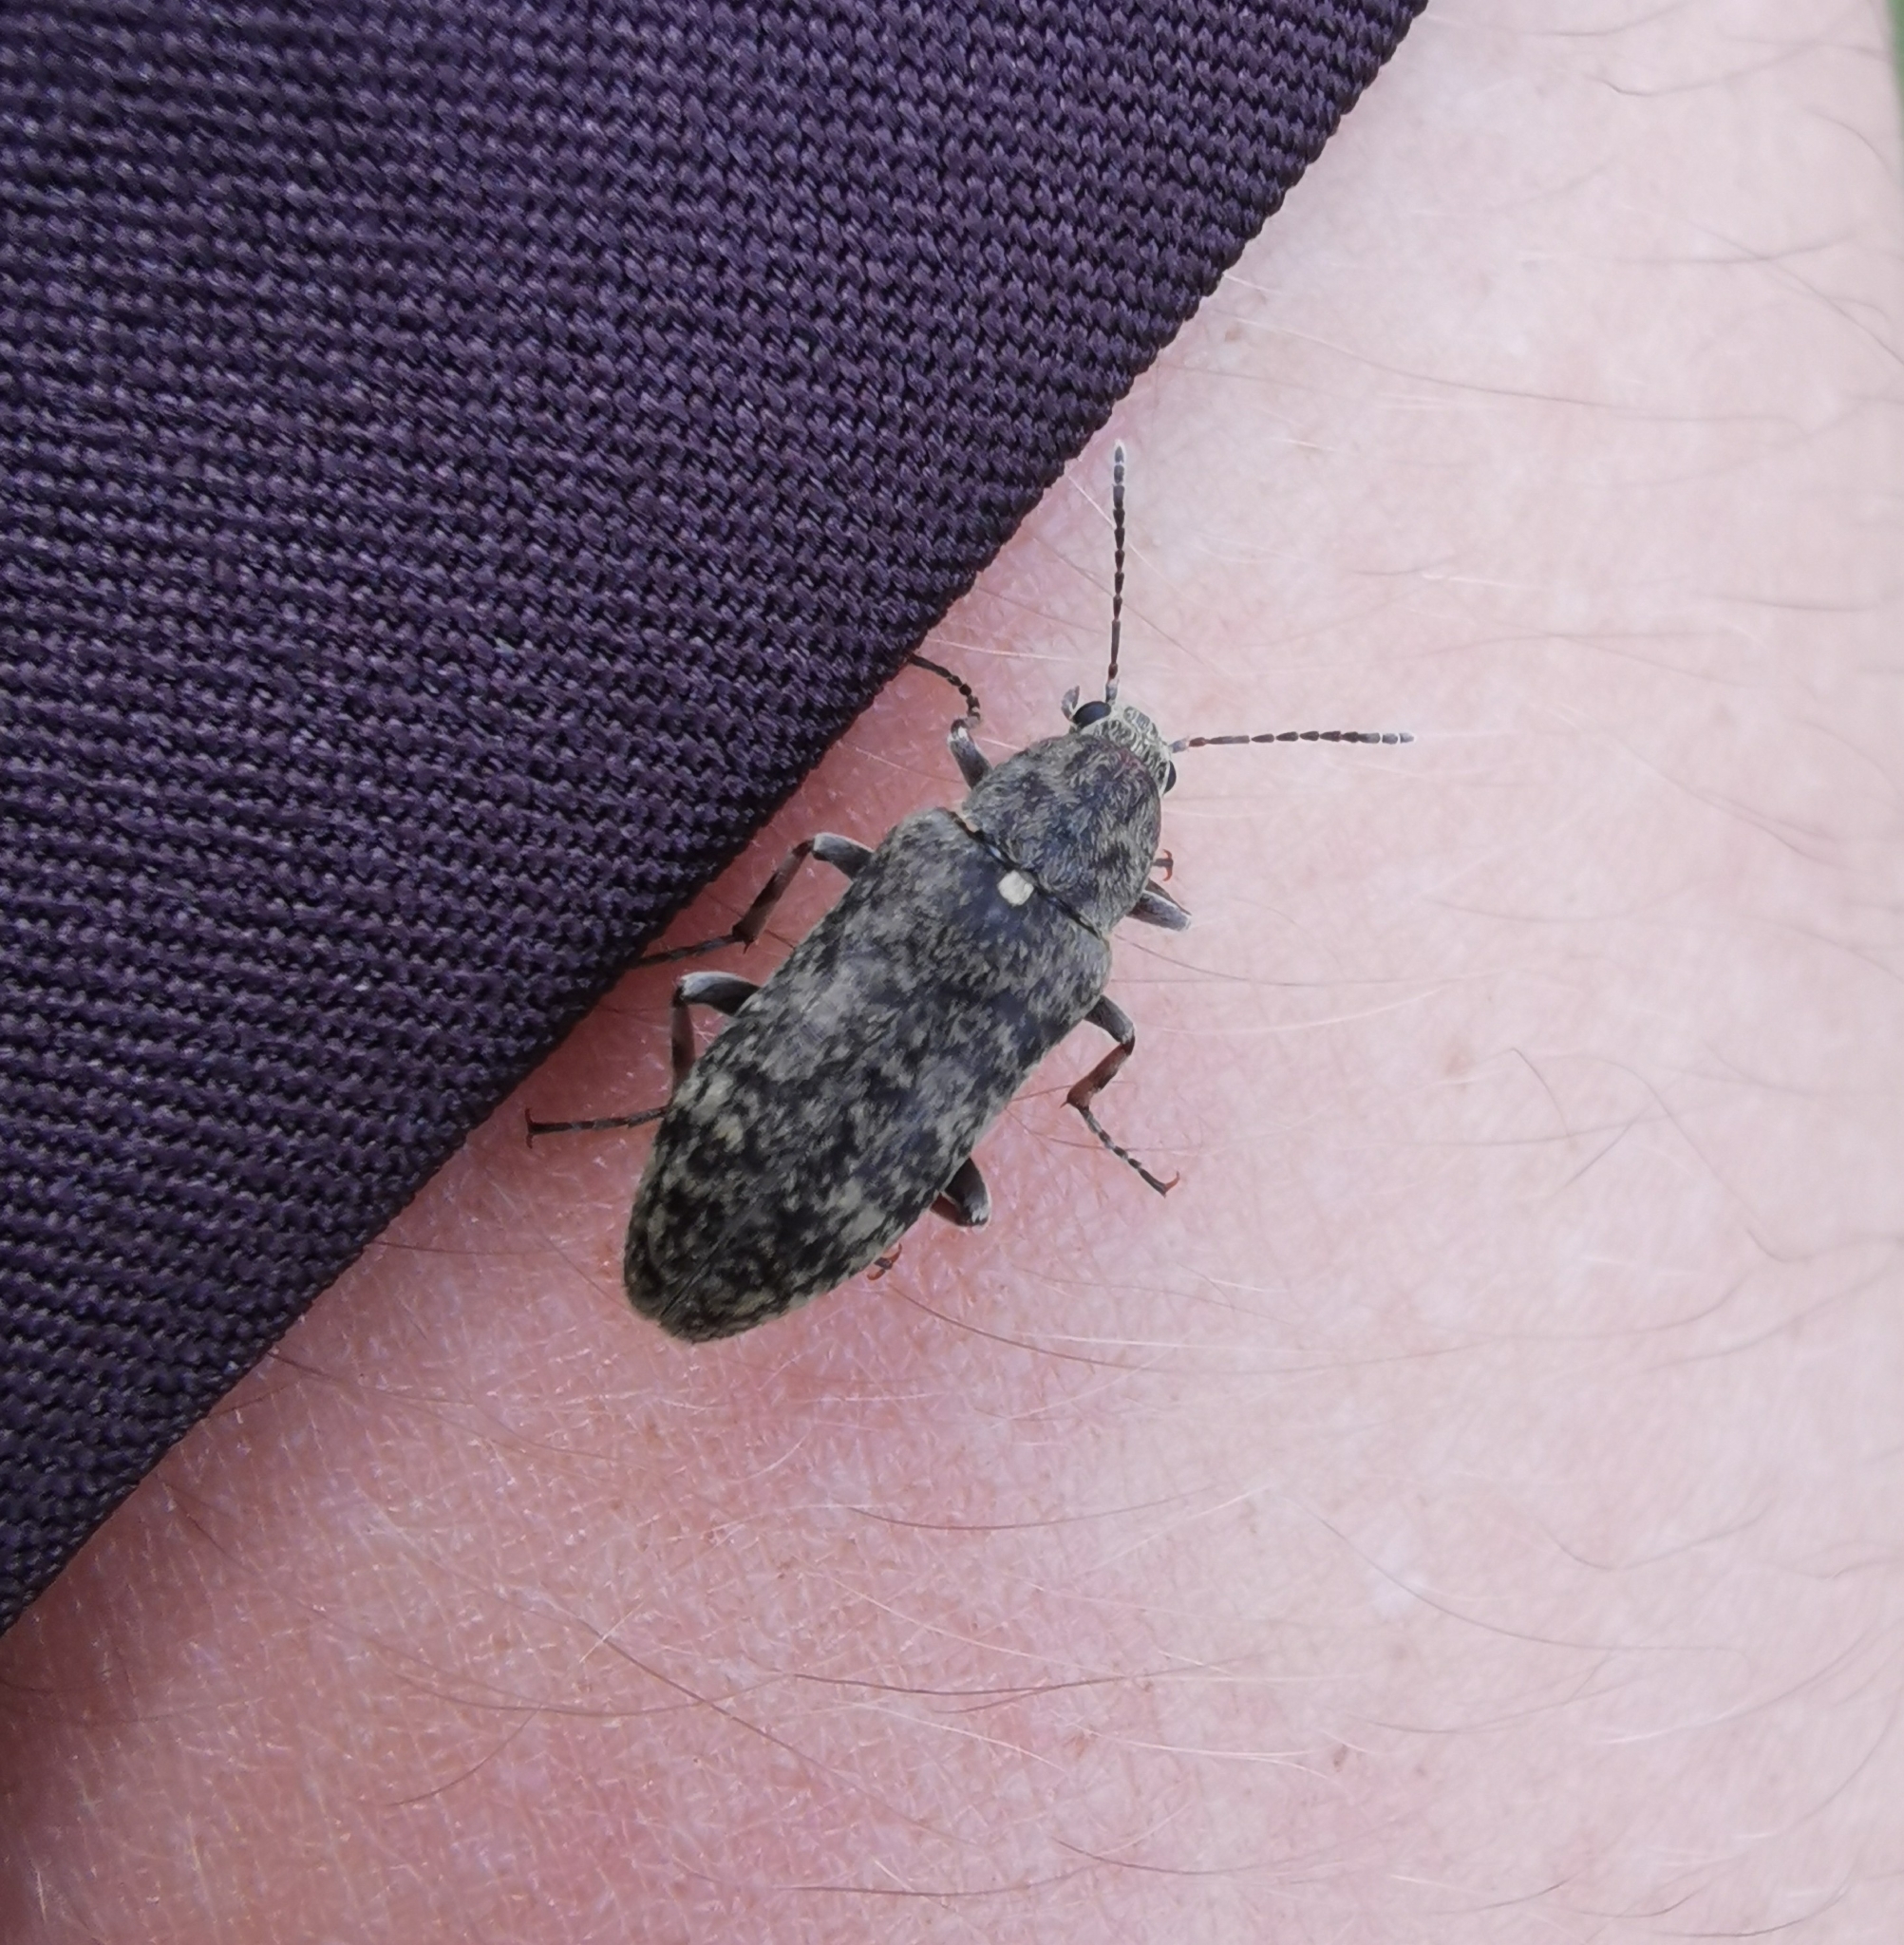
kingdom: Animalia
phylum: Arthropoda
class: Insecta
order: Coleoptera
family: Stenotrachelidae
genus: Scotodes
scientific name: Scotodes annulatus
